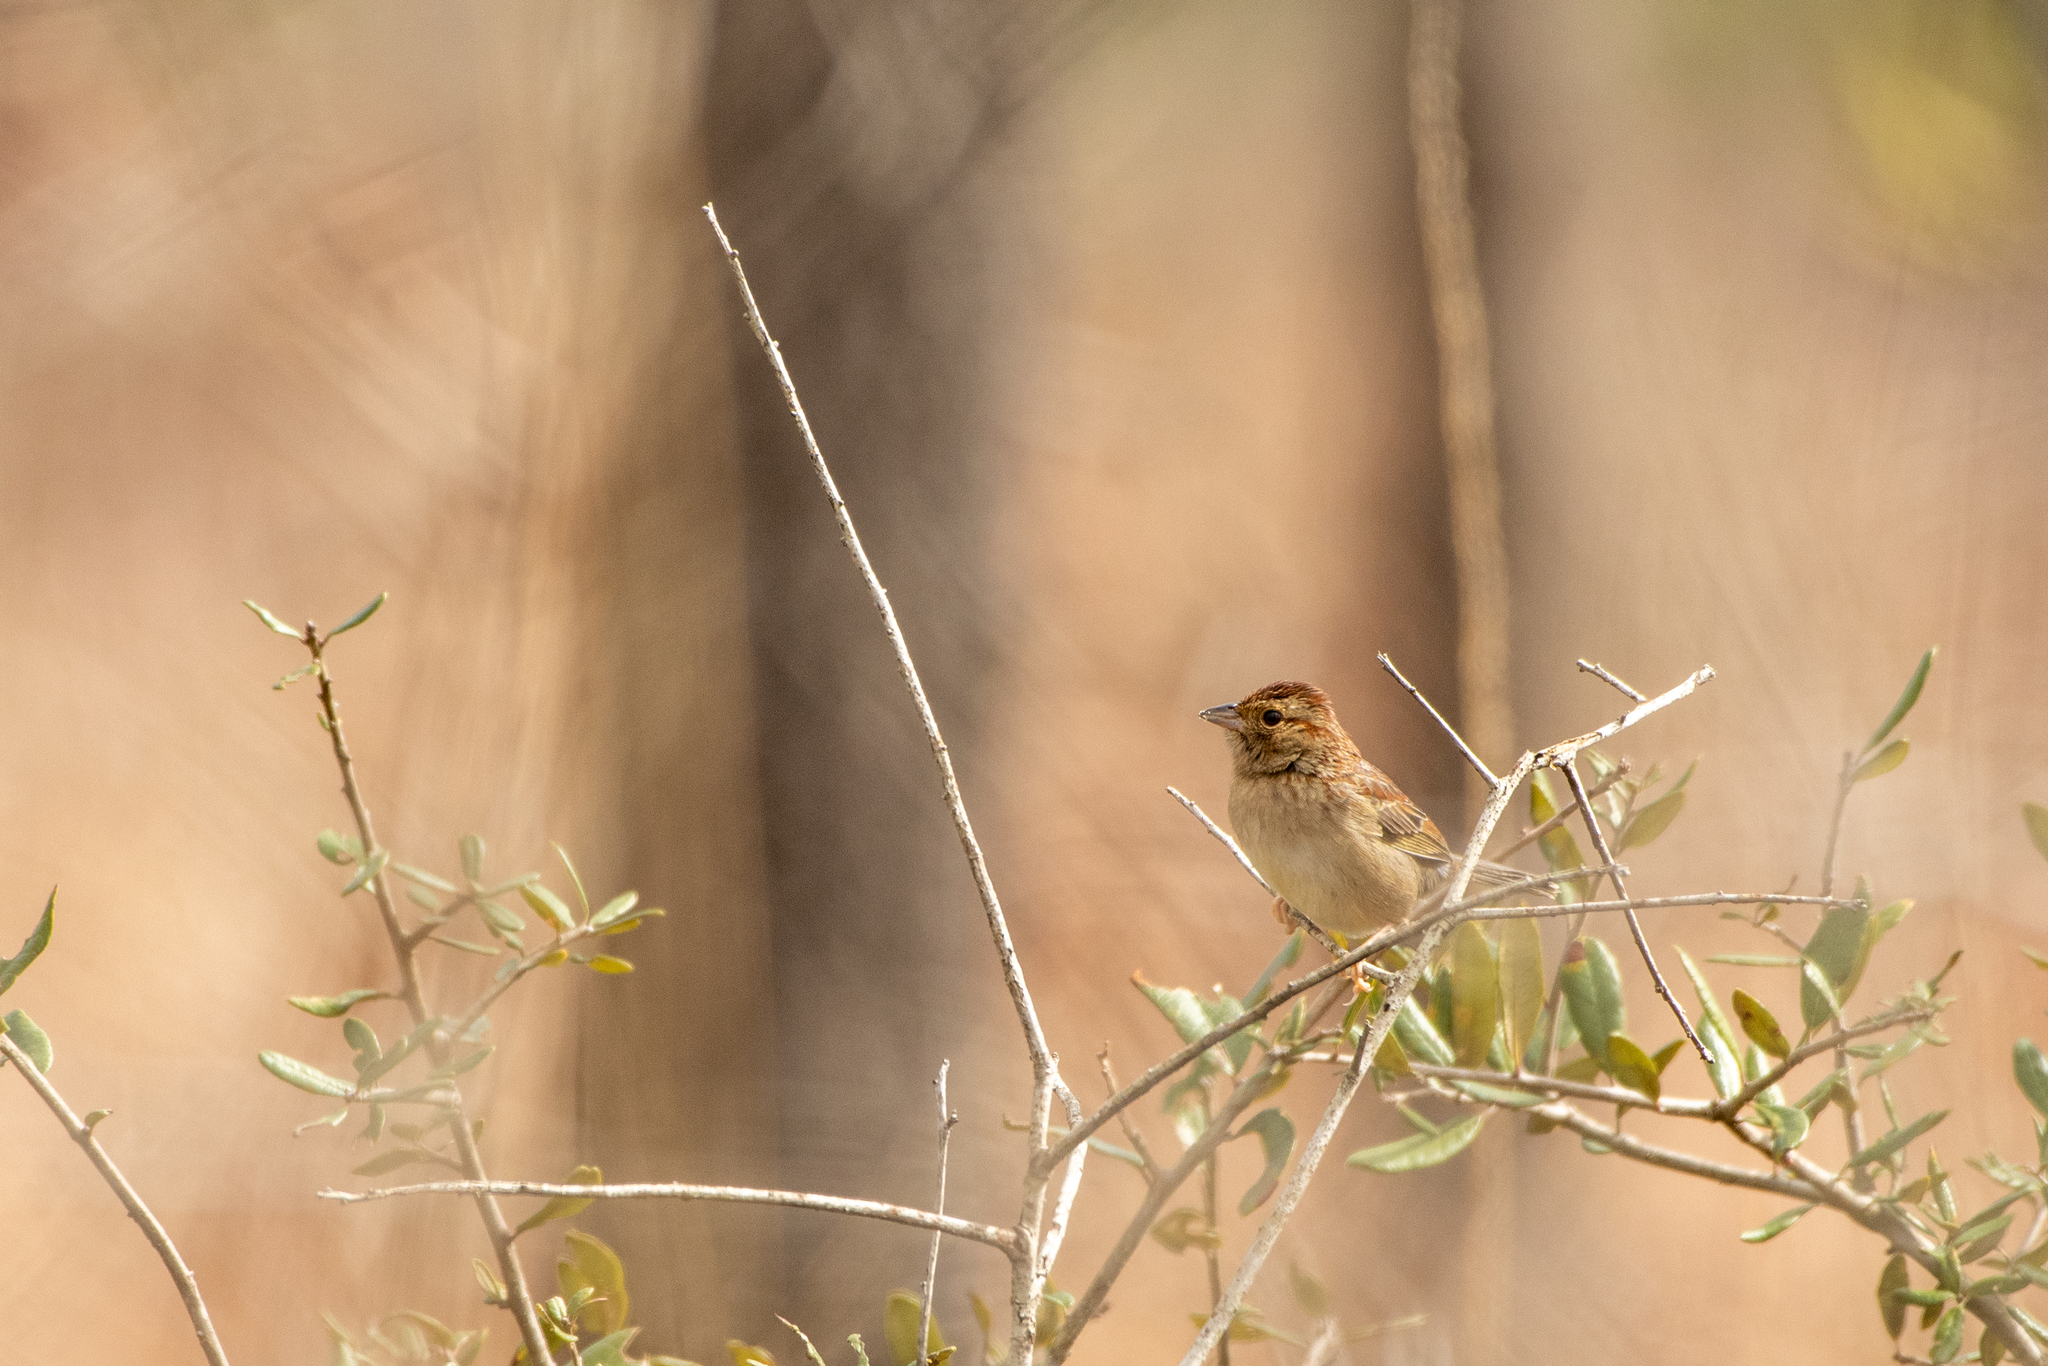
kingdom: Animalia
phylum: Chordata
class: Aves
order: Passeriformes
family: Passerellidae
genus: Peucaea
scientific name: Peucaea aestivalis
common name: Bachman's sparrow
